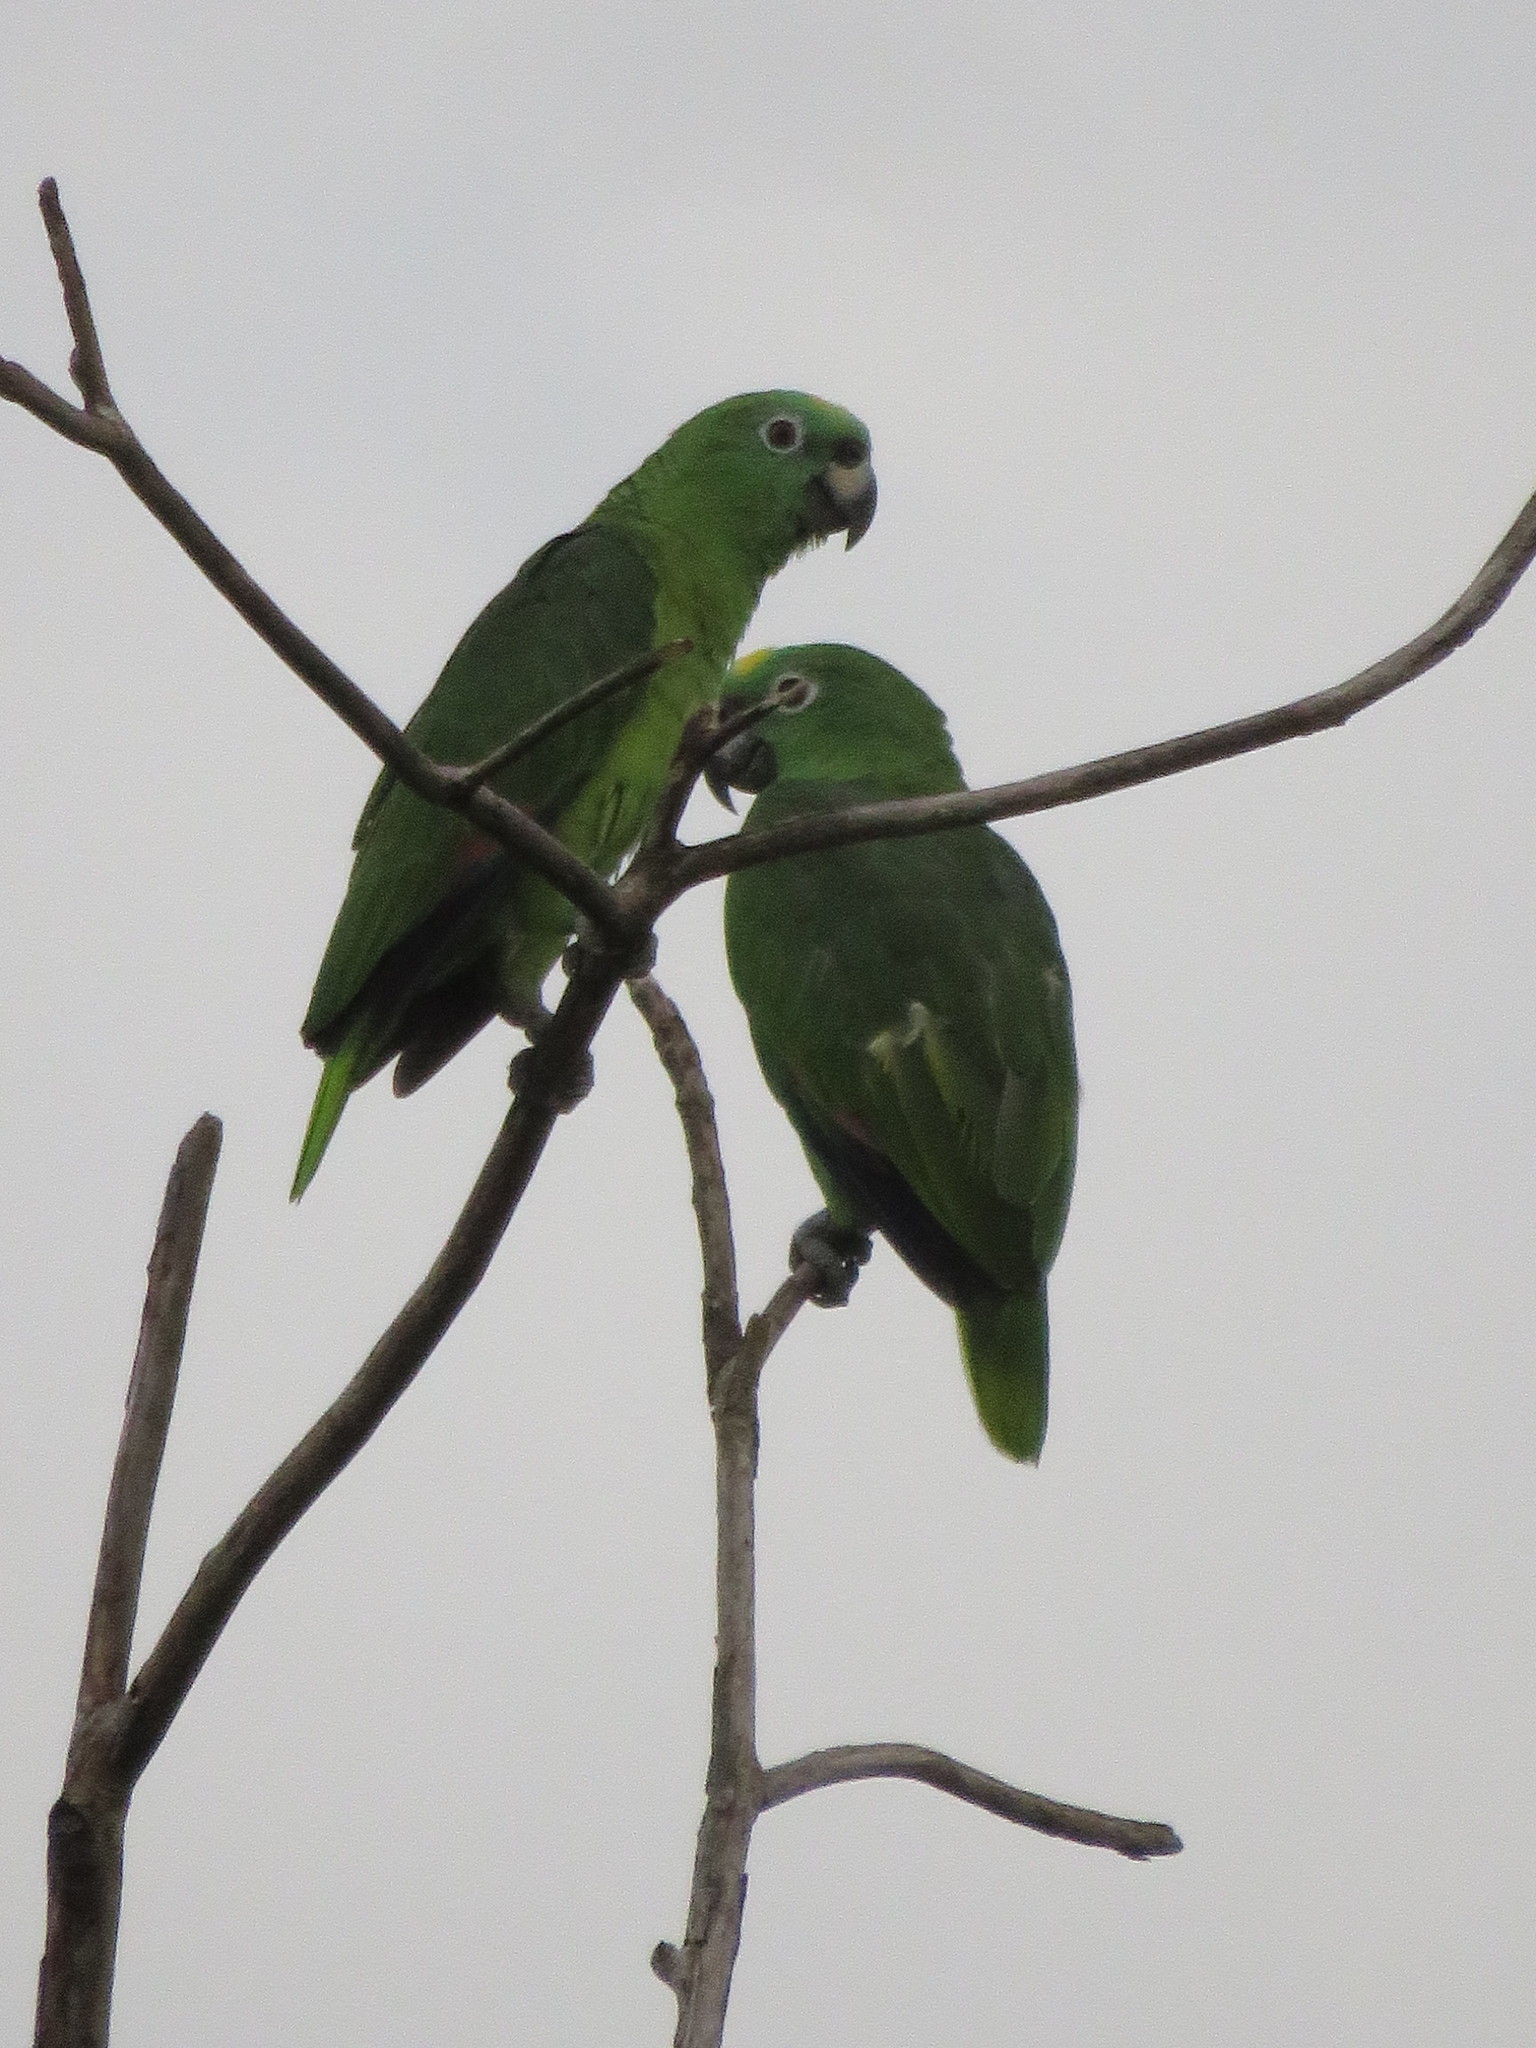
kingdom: Animalia
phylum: Chordata
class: Aves
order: Psittaciformes
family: Psittacidae
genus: Amazona
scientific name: Amazona ochrocephala
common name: Yellow-crowned amazon
